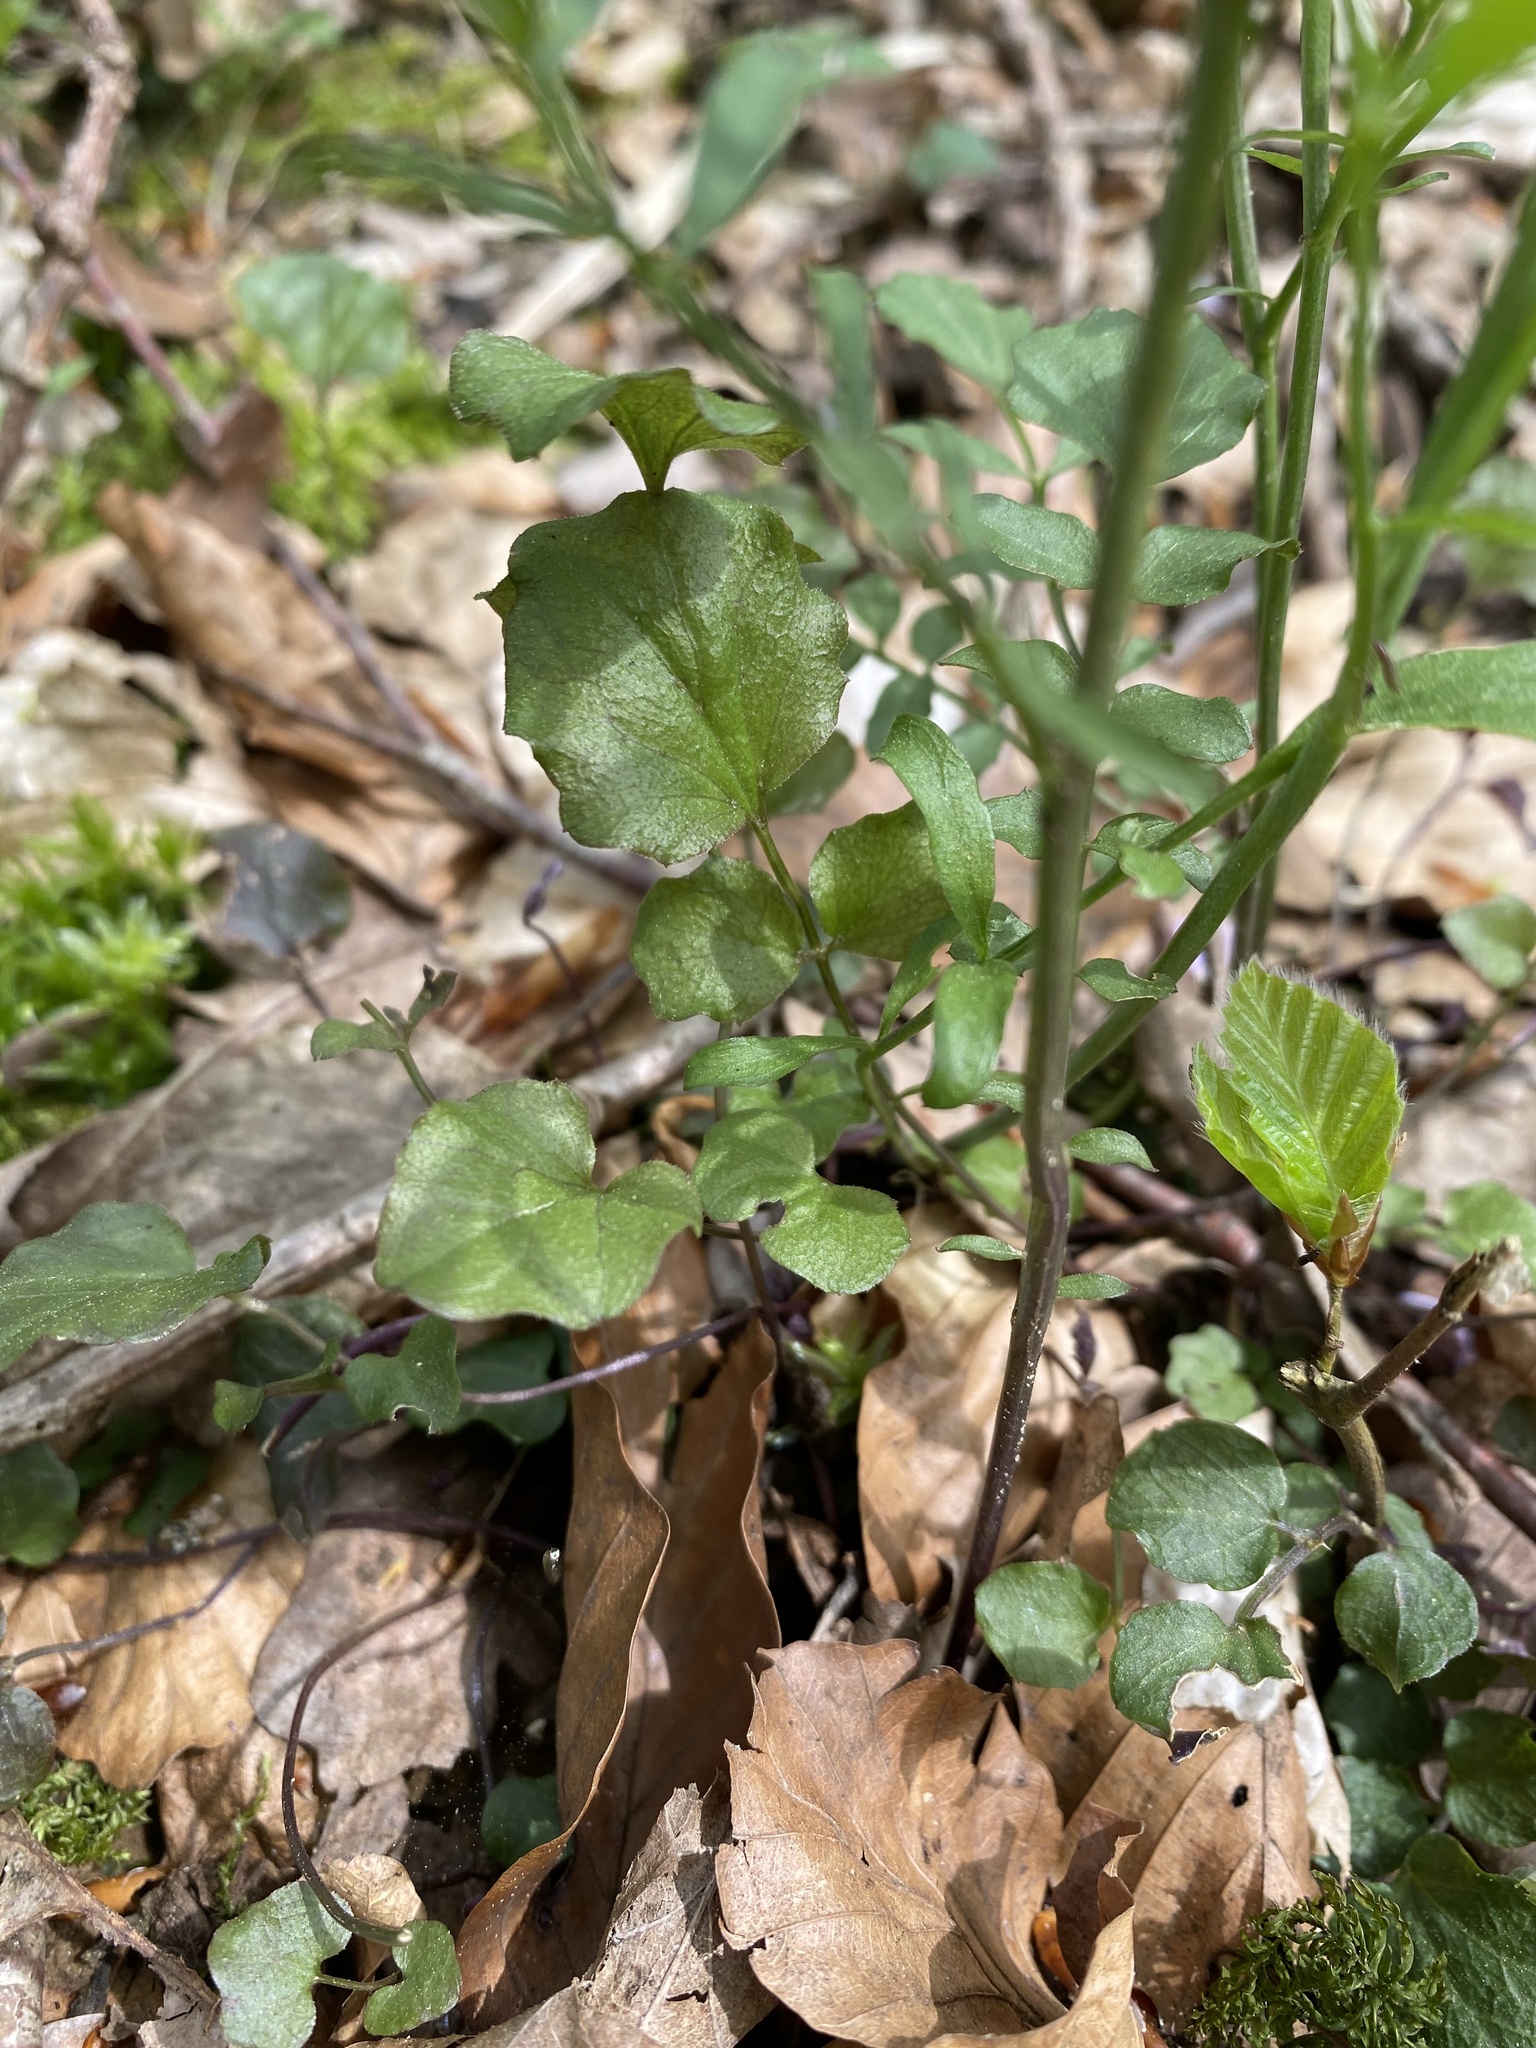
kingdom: Plantae
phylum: Tracheophyta
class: Magnoliopsida
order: Brassicales
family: Brassicaceae
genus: Cardamine
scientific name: Cardamine pratensis
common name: Cuckoo flower
